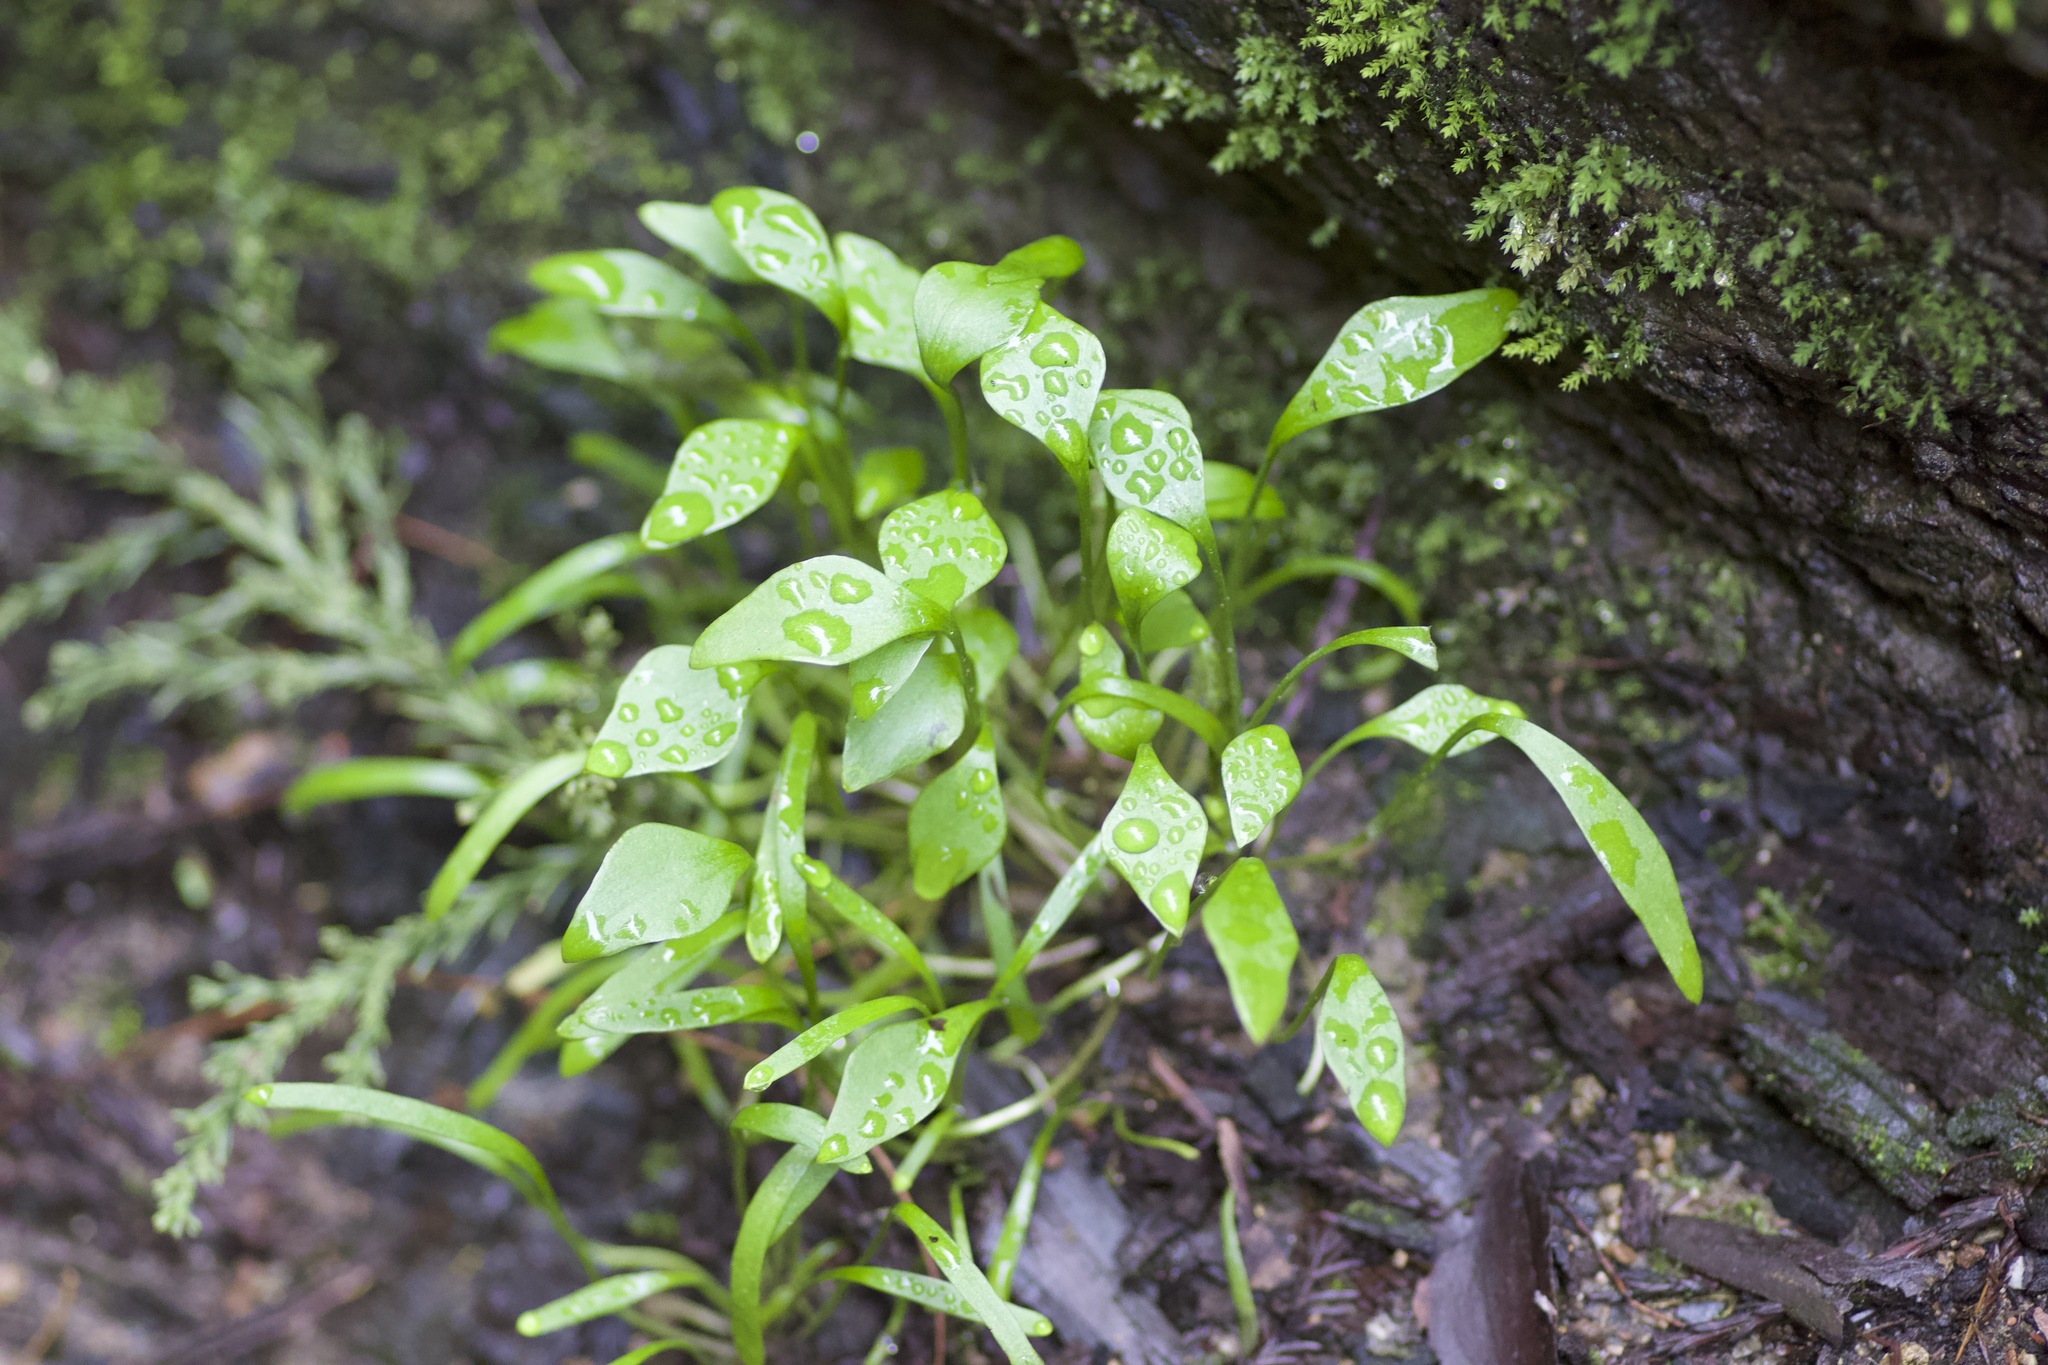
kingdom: Plantae
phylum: Tracheophyta
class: Magnoliopsida
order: Caryophyllales
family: Montiaceae
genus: Claytonia
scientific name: Claytonia perfoliata
